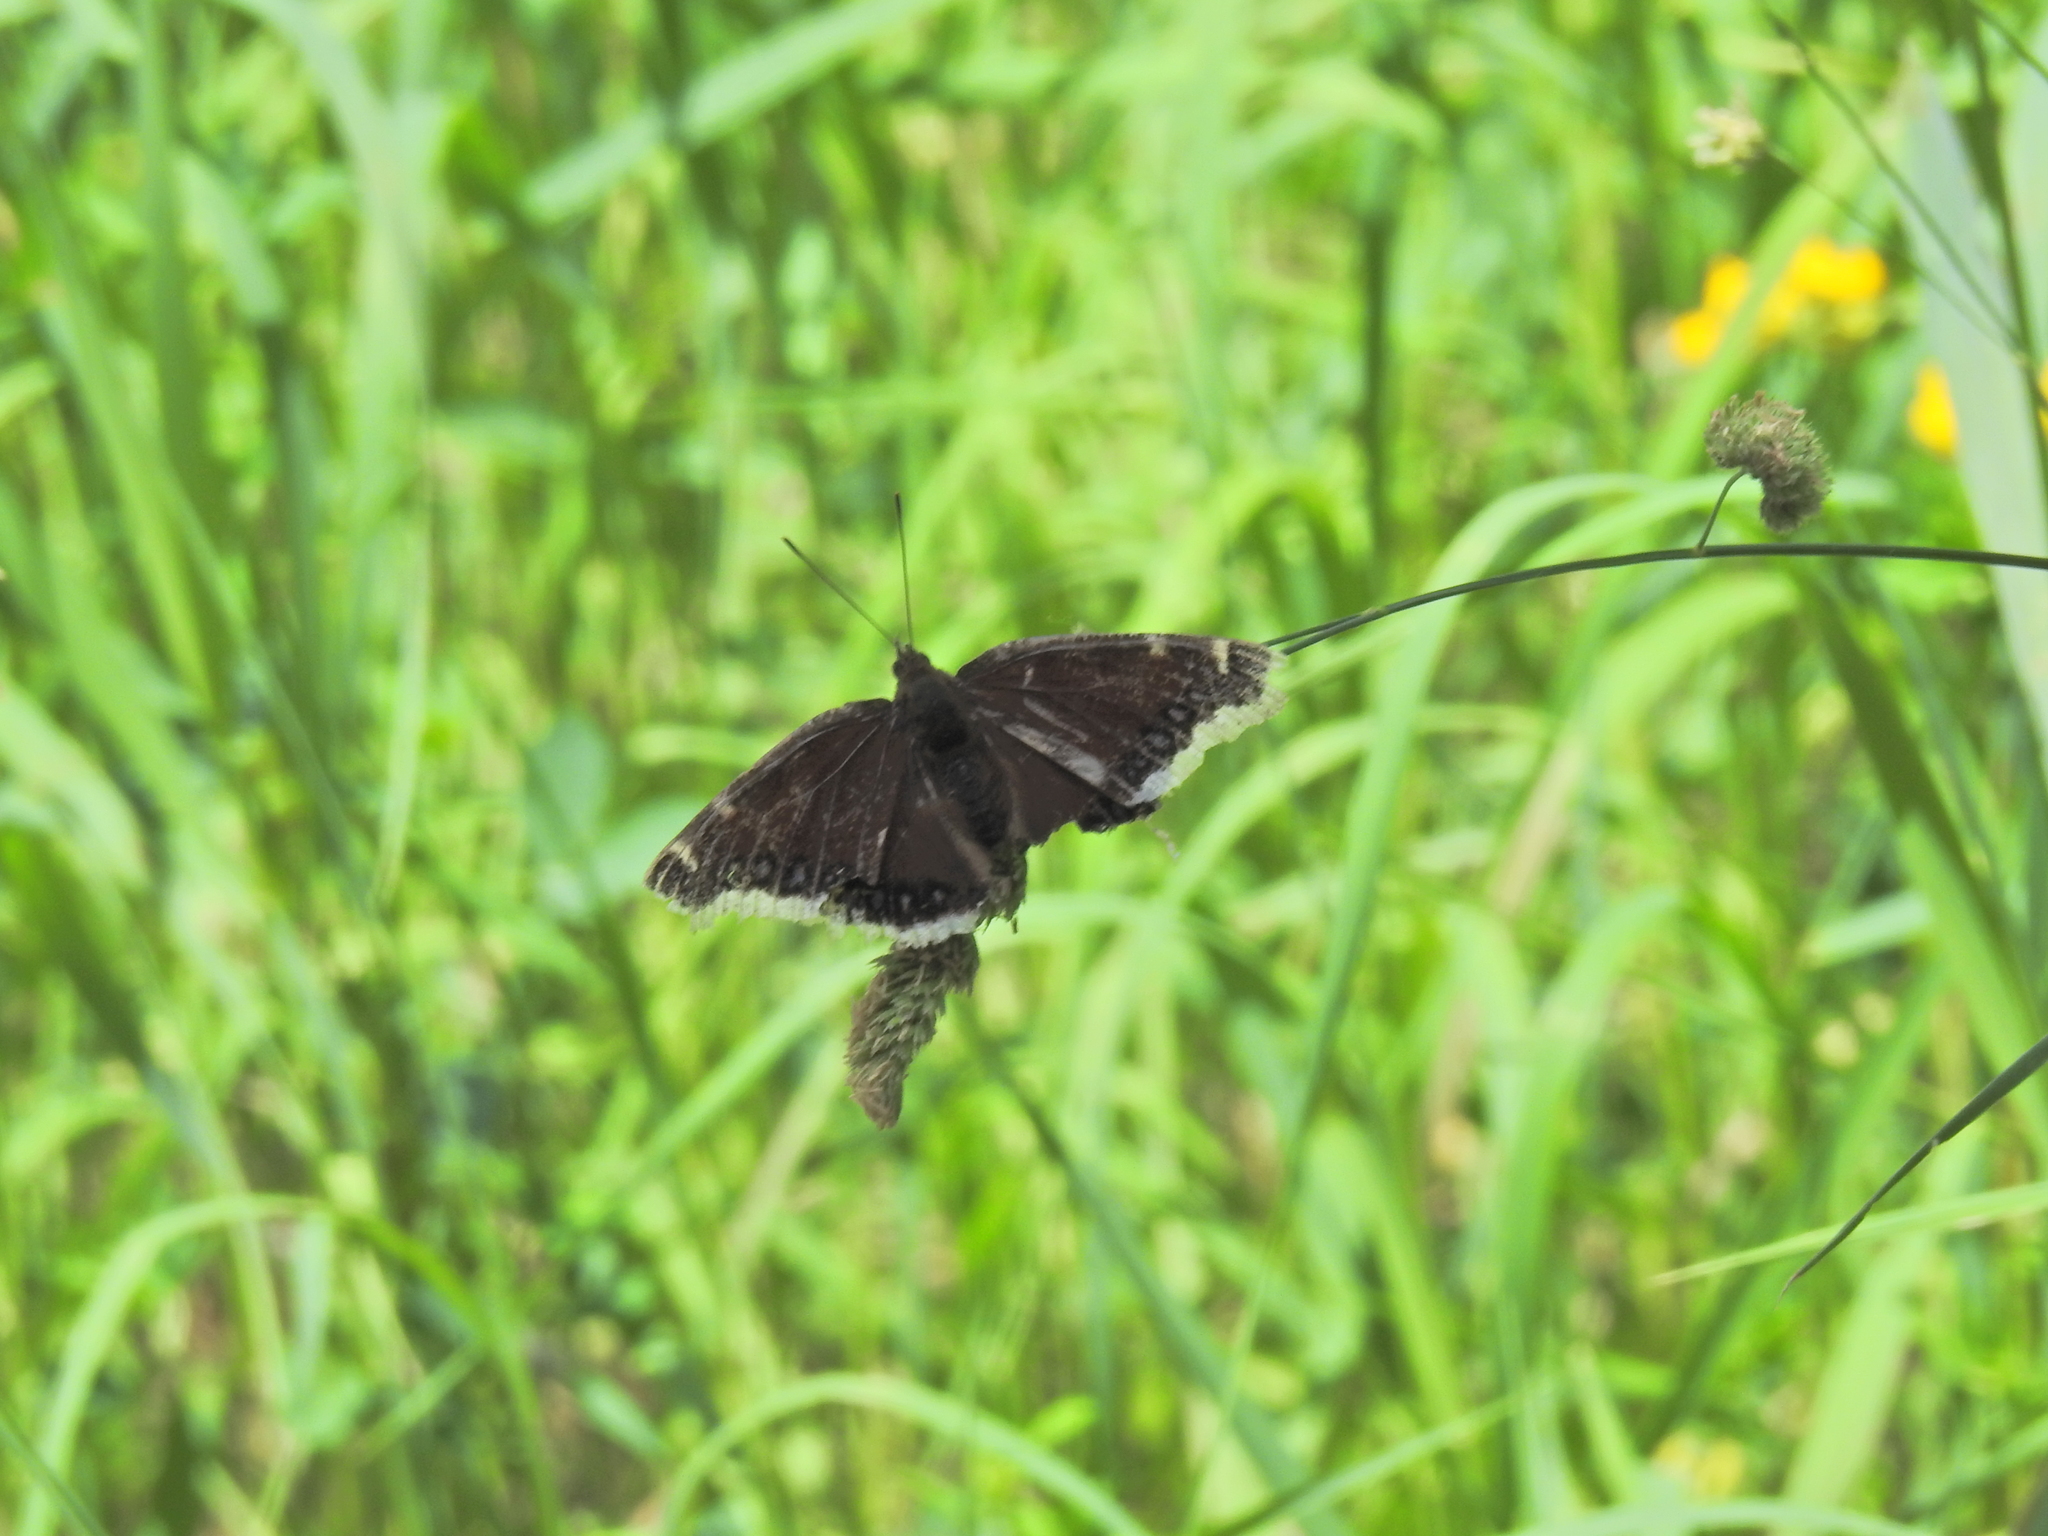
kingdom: Animalia
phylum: Arthropoda
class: Insecta
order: Lepidoptera
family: Nymphalidae
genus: Nymphalis
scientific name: Nymphalis antiopa
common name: Camberwell beauty
